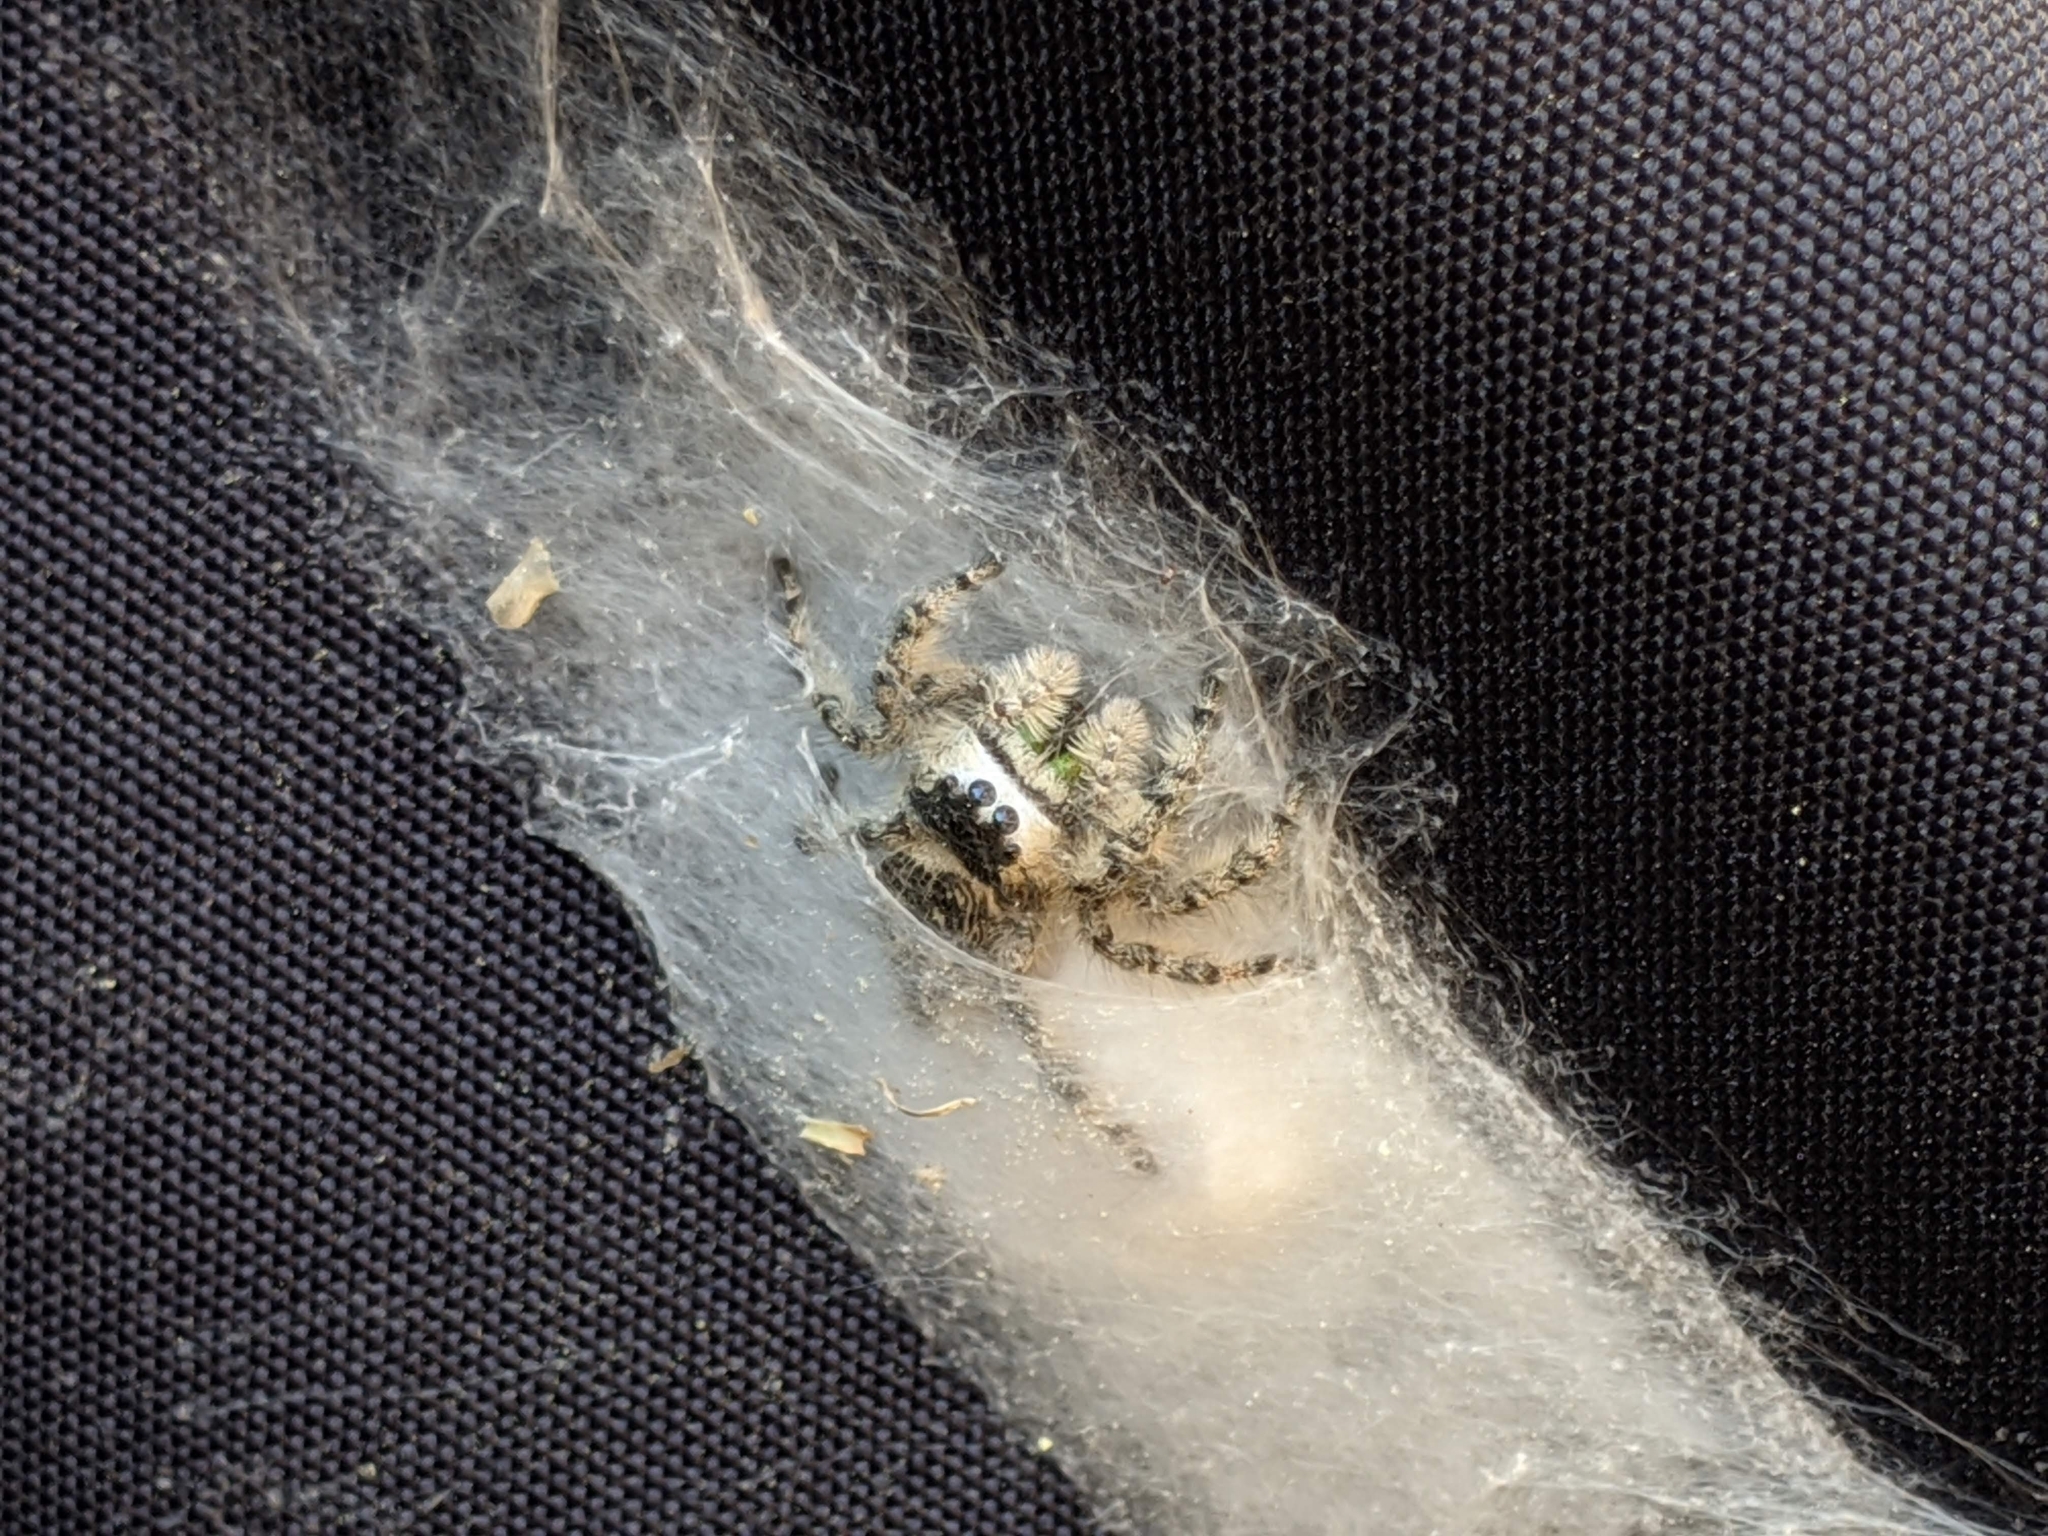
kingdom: Animalia
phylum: Arthropoda
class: Arachnida
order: Araneae
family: Salticidae
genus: Phidippus
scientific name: Phidippus otiosus
